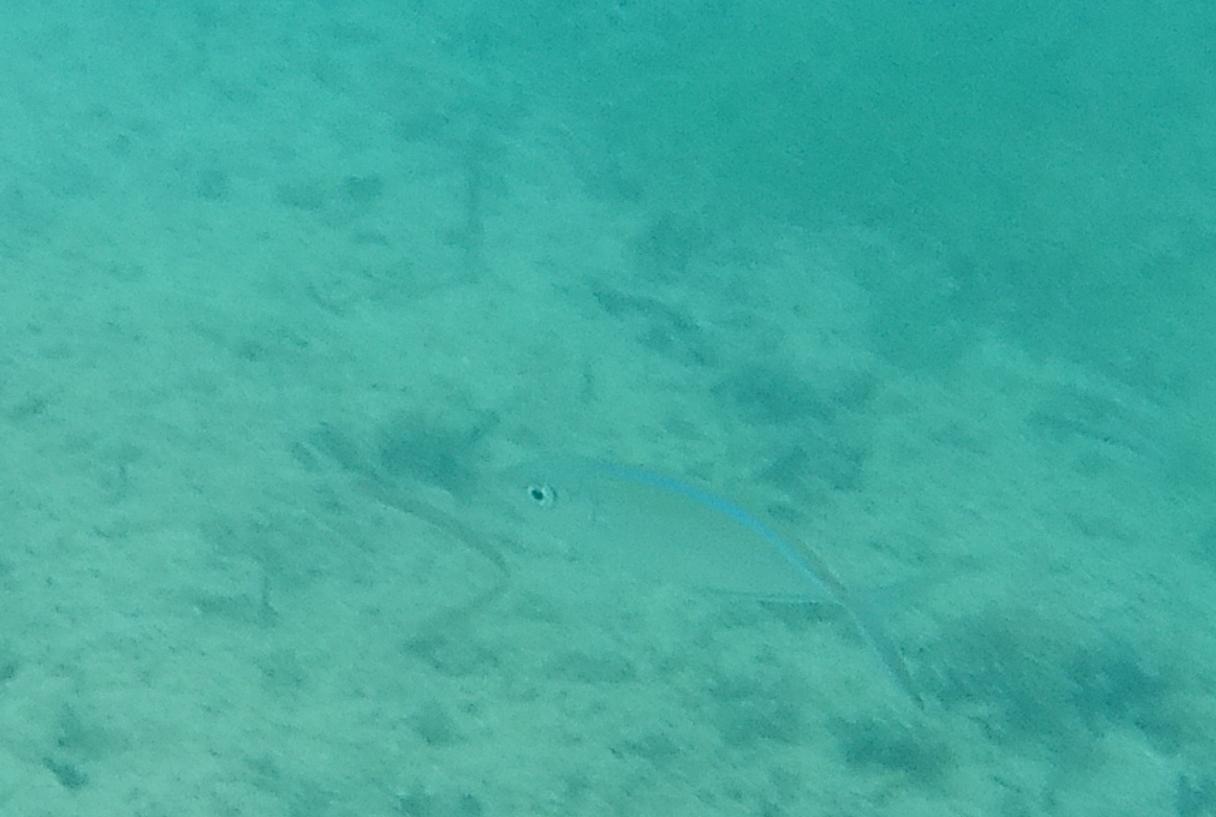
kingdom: Animalia
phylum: Chordata
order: Perciformes
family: Carangidae
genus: Caranx
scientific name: Caranx ruber
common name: Bar jack
